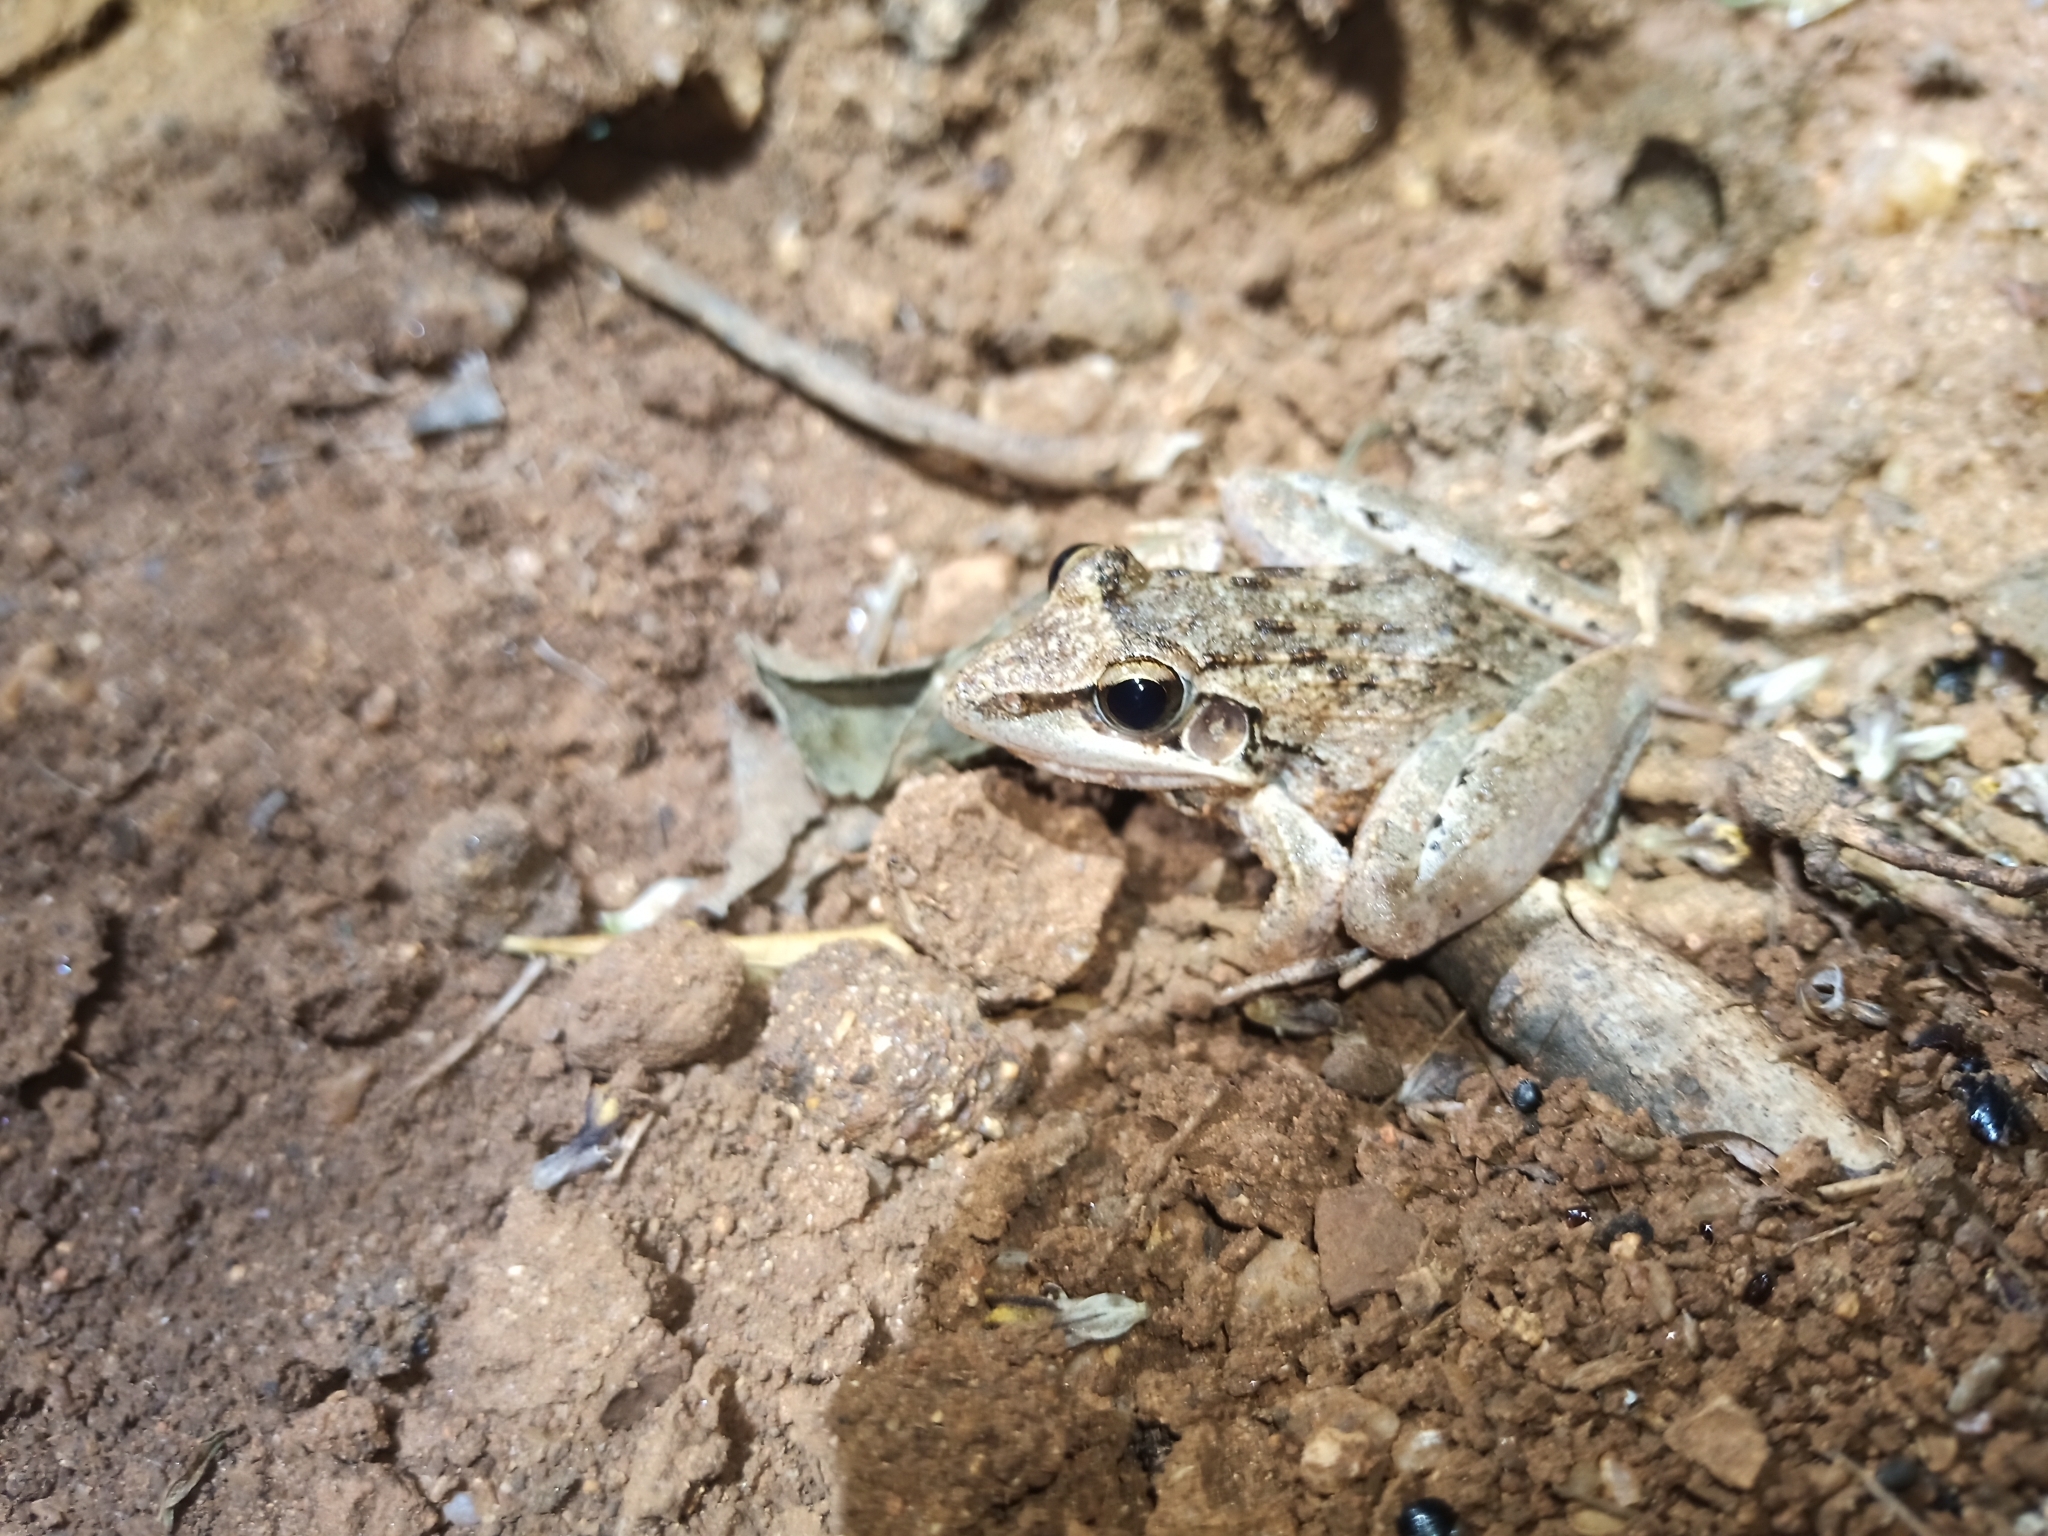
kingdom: Animalia
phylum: Chordata
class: Amphibia
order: Anura
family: Ptychadenidae
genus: Ptychadena
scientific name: Ptychadena anchietae
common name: Anchieta's ridged frog
